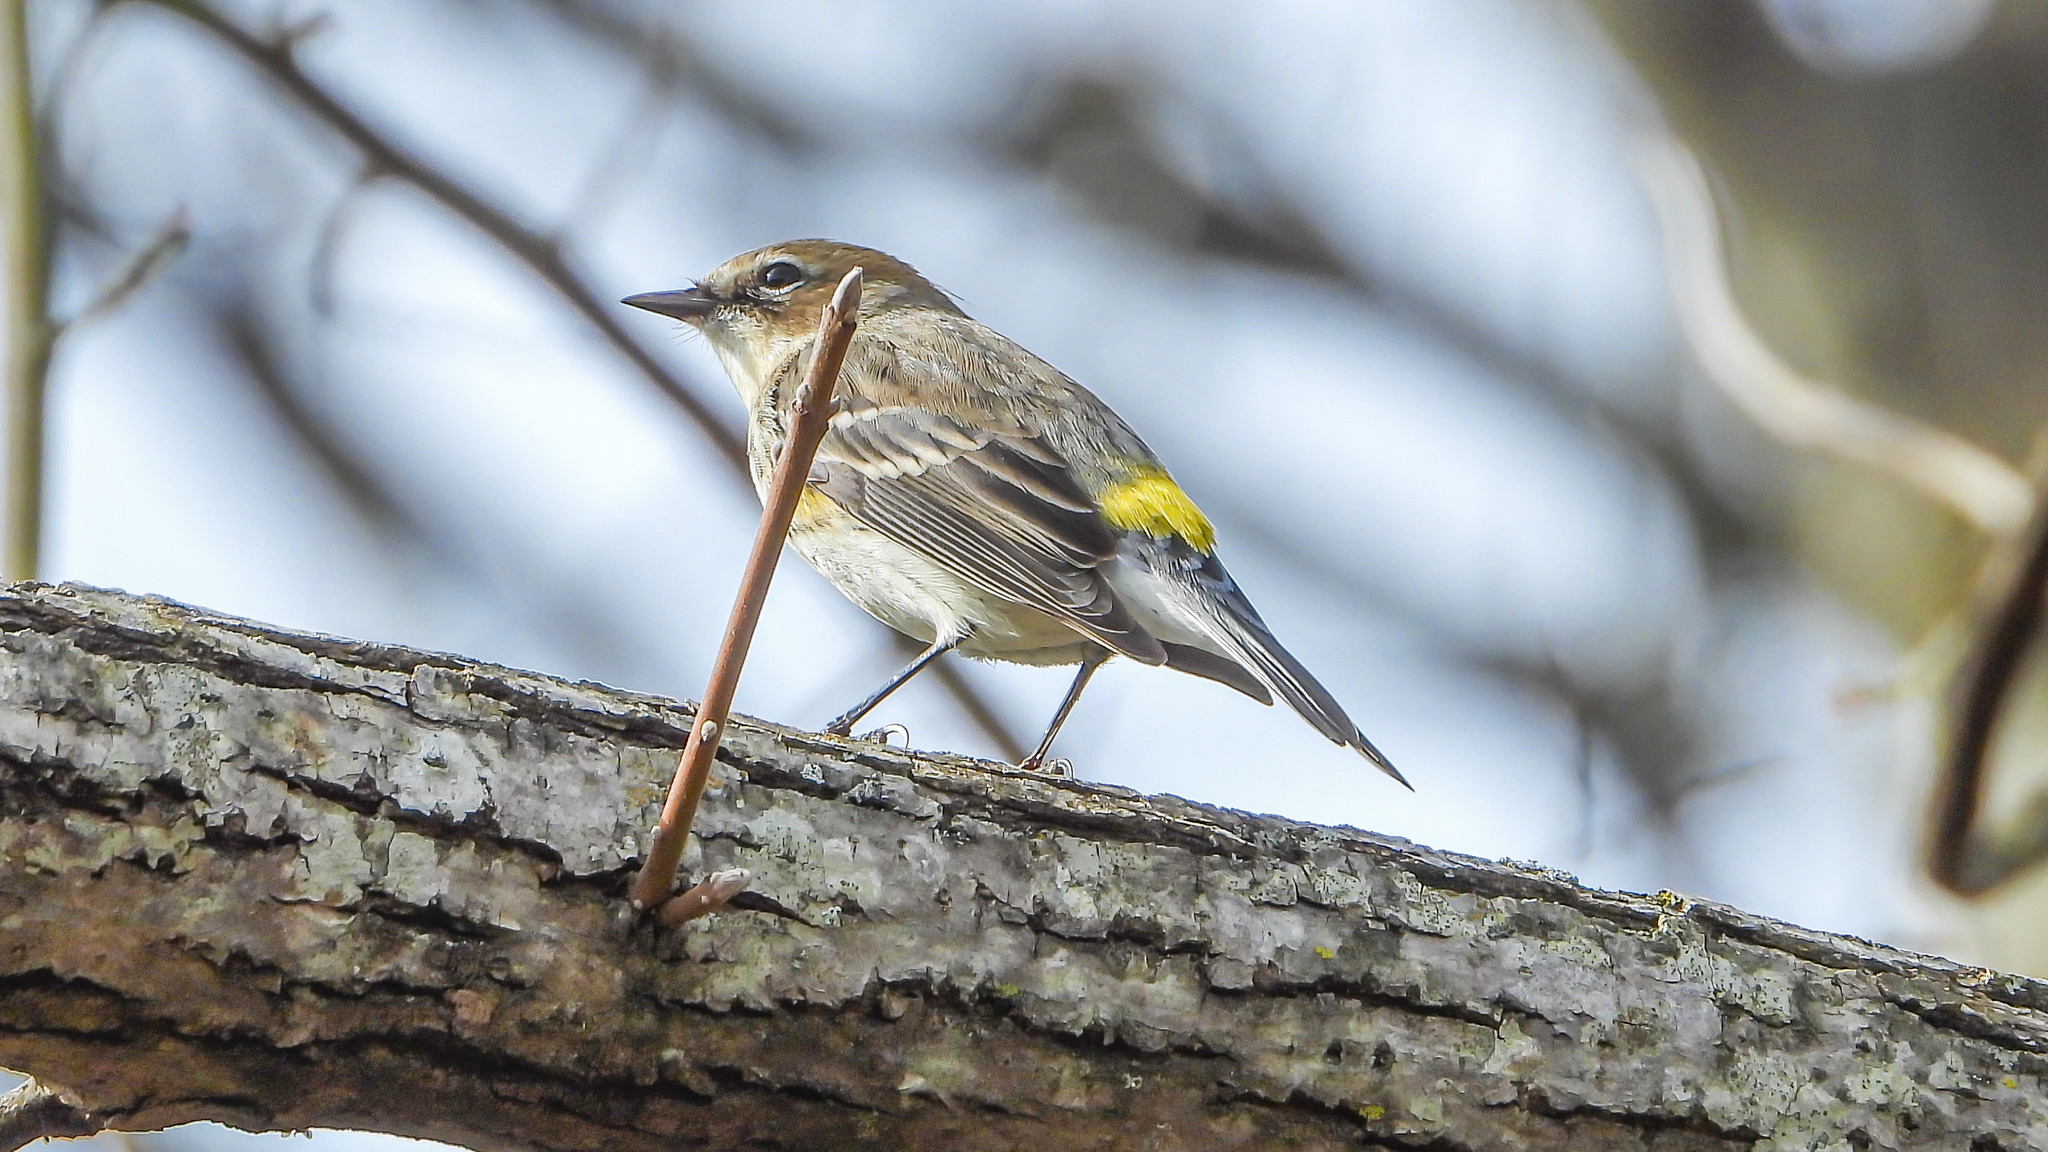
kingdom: Animalia
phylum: Chordata
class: Aves
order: Passeriformes
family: Parulidae
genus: Setophaga
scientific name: Setophaga coronata
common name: Myrtle warbler
